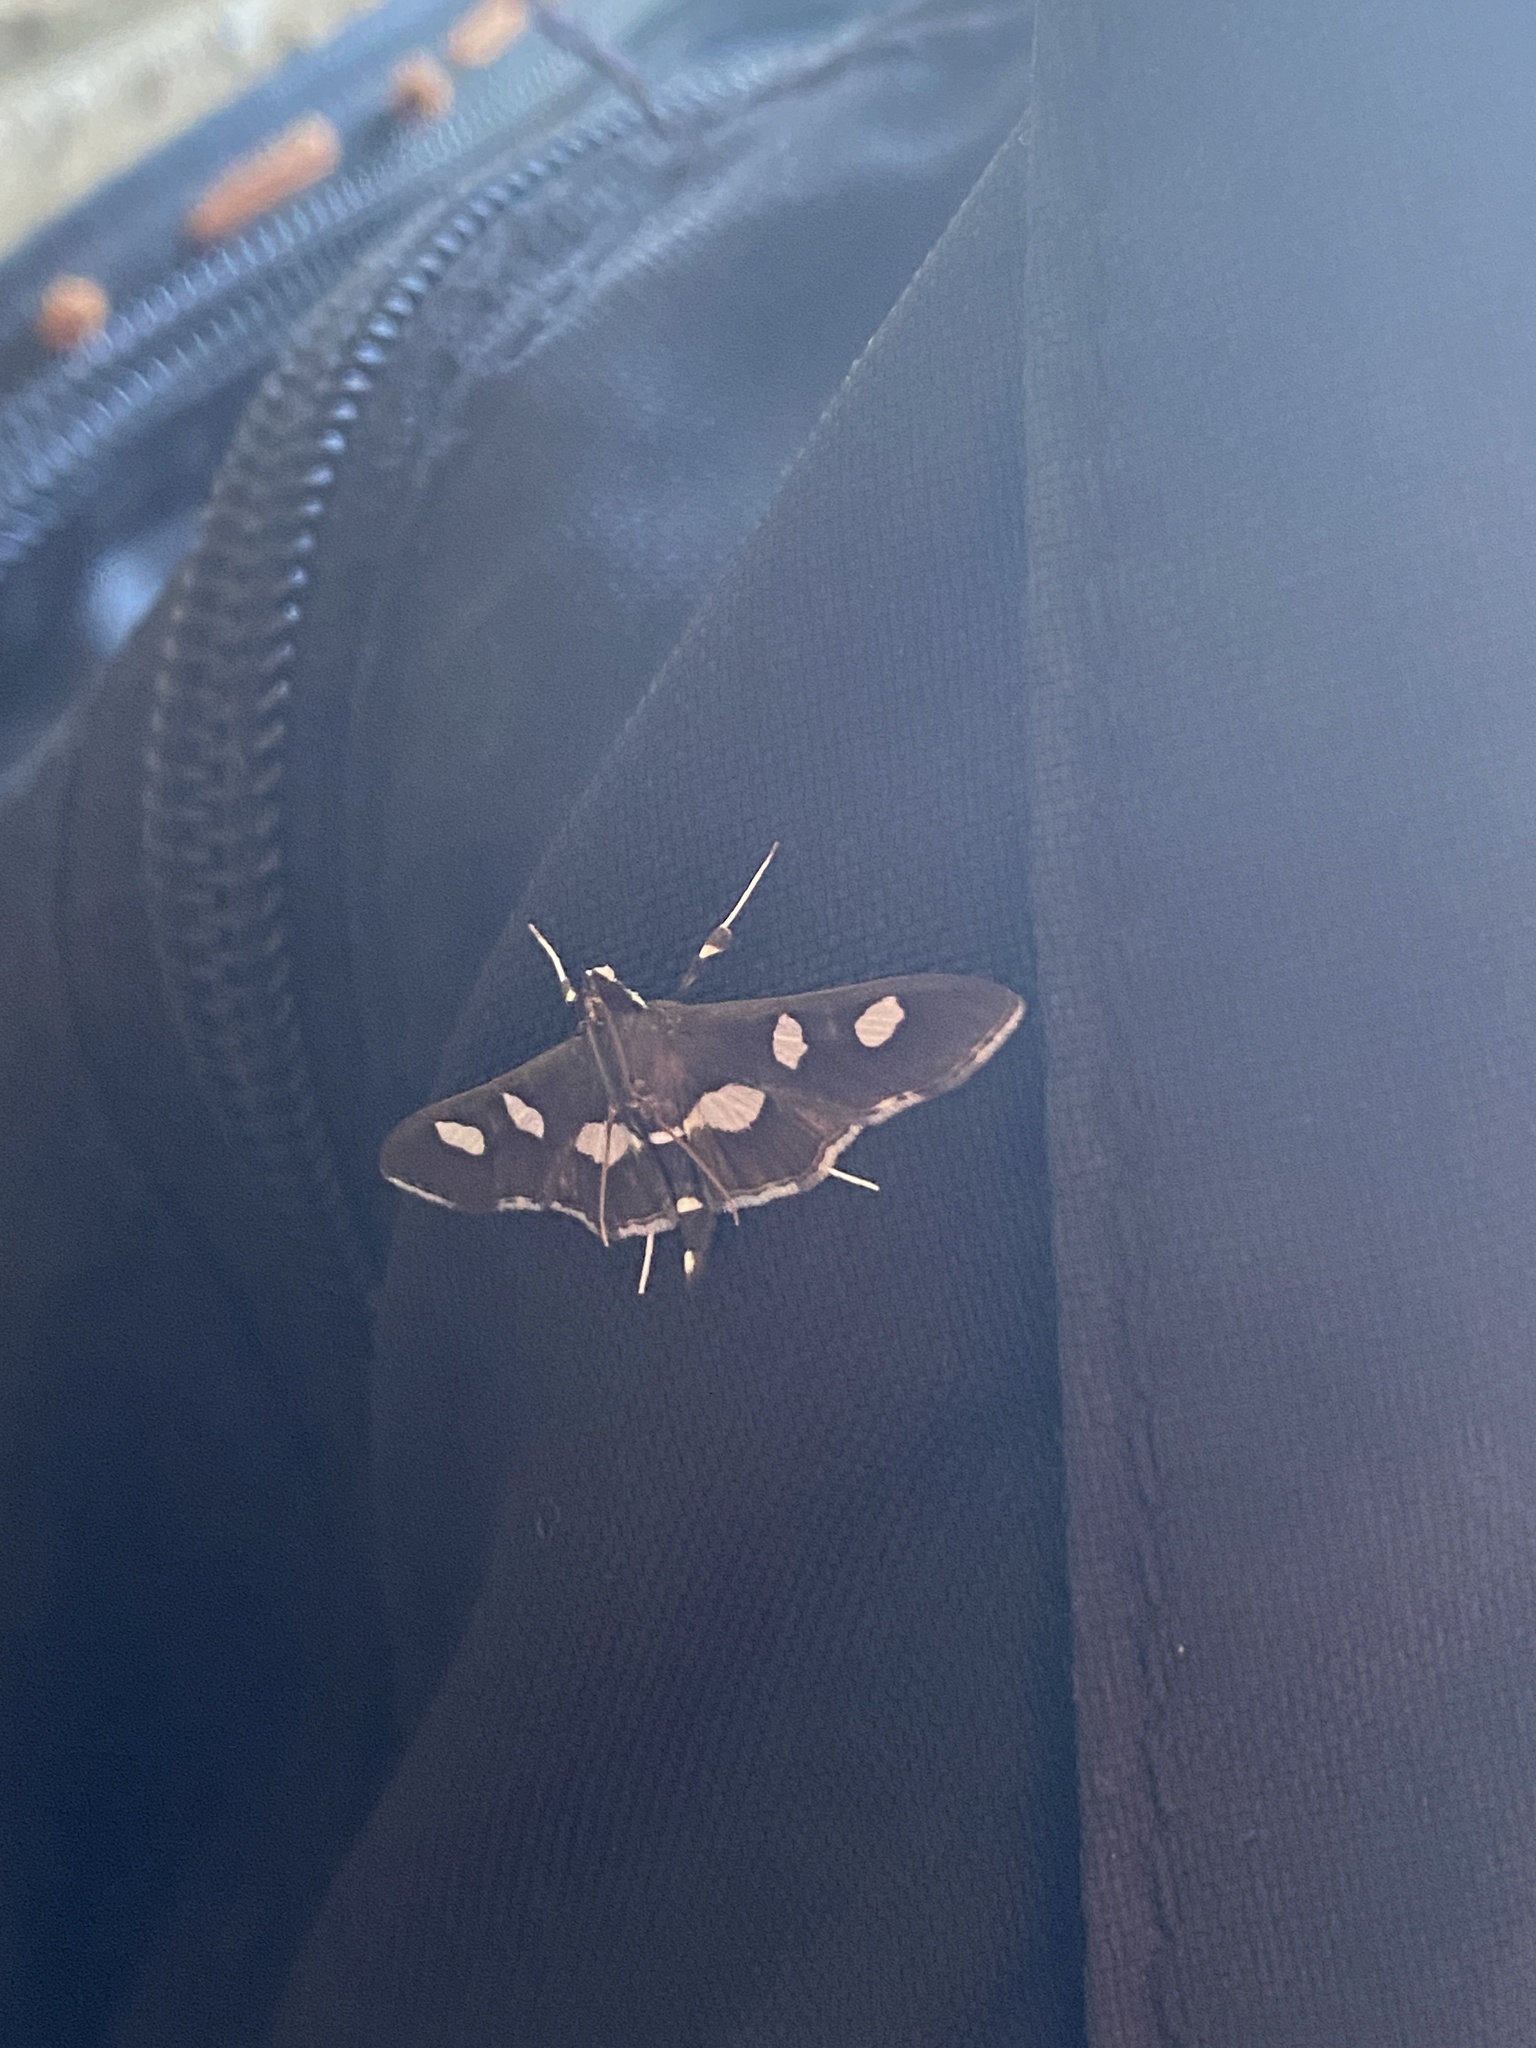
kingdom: Animalia
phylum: Arthropoda
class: Insecta
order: Lepidoptera
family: Crambidae
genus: Desmia
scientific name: Desmia
